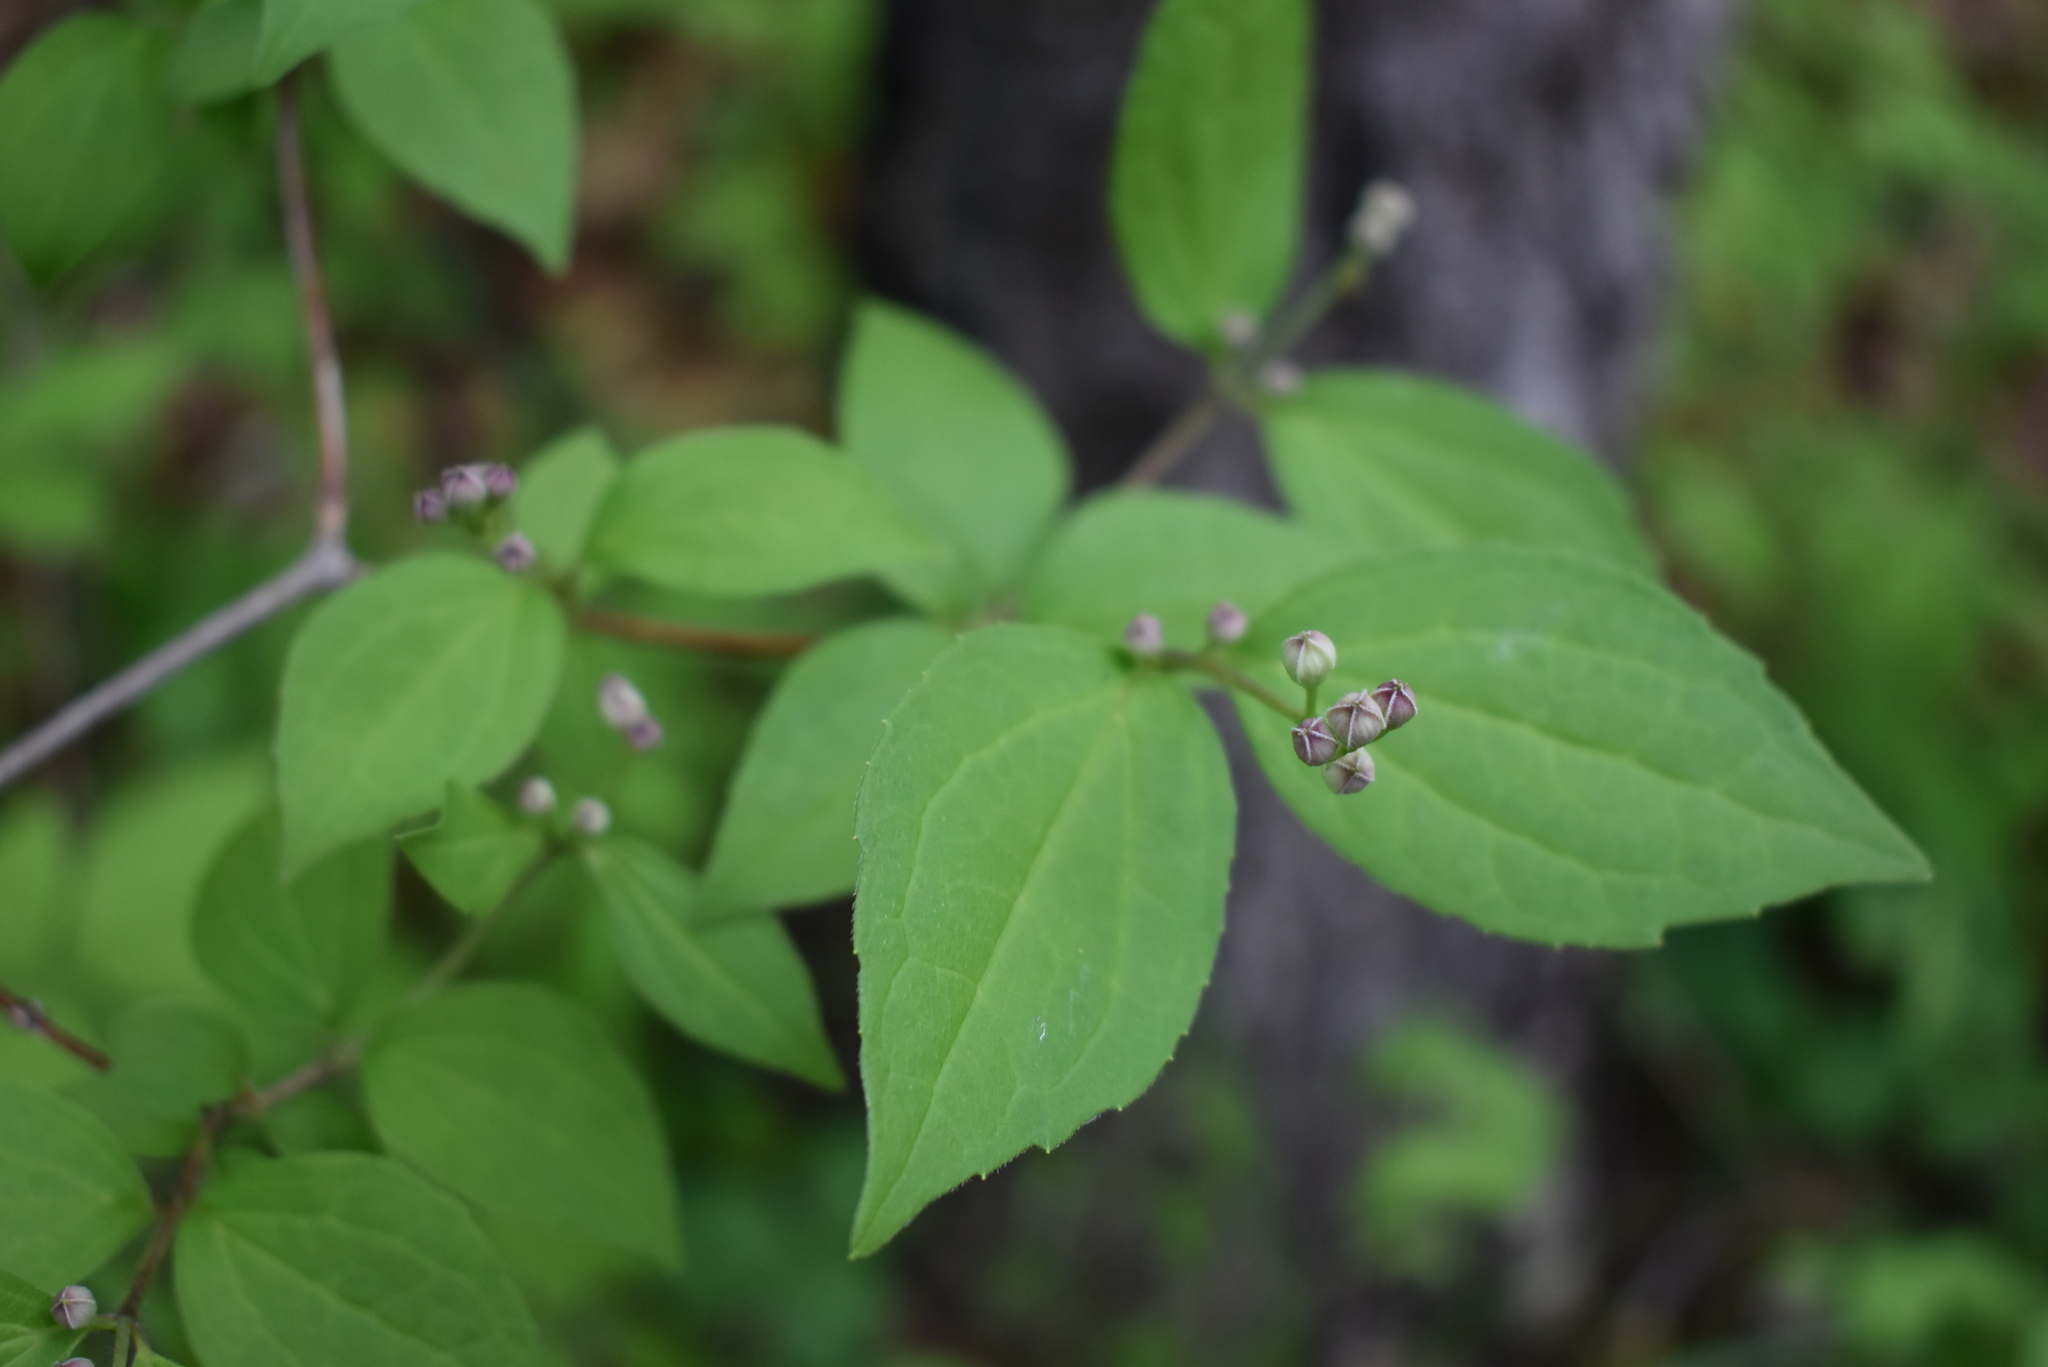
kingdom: Plantae
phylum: Tracheophyta
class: Magnoliopsida
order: Cornales
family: Hydrangeaceae
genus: Philadelphus
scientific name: Philadelphus tenuifolius
